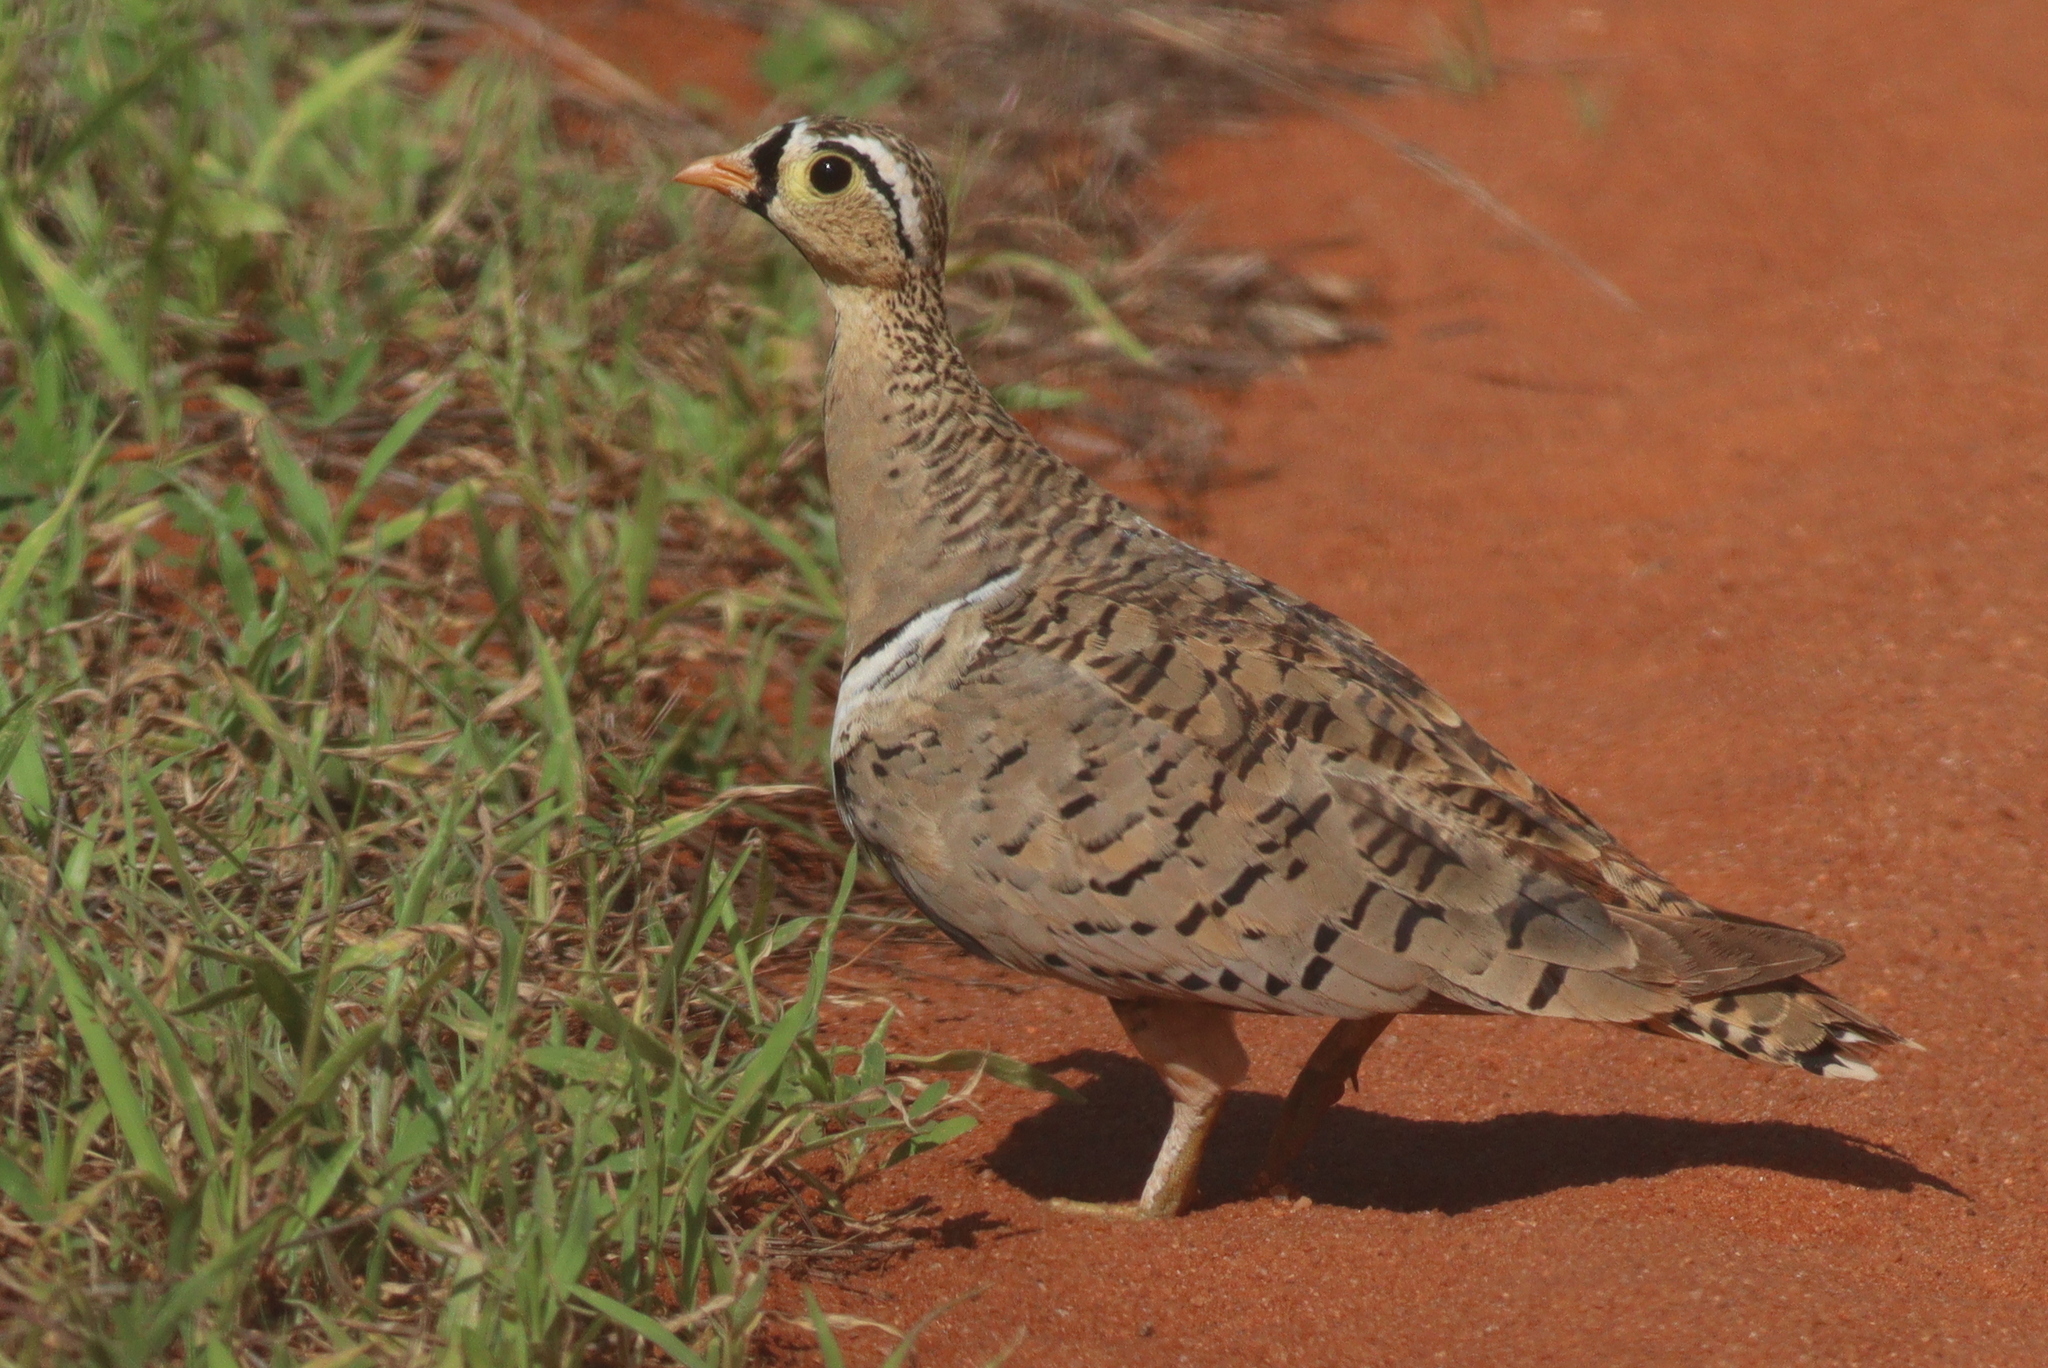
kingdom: Animalia
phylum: Chordata
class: Aves
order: Pteroclidiformes
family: Pteroclididae
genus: Pterocles
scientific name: Pterocles decoratus
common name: Black-faced sandgrouse
